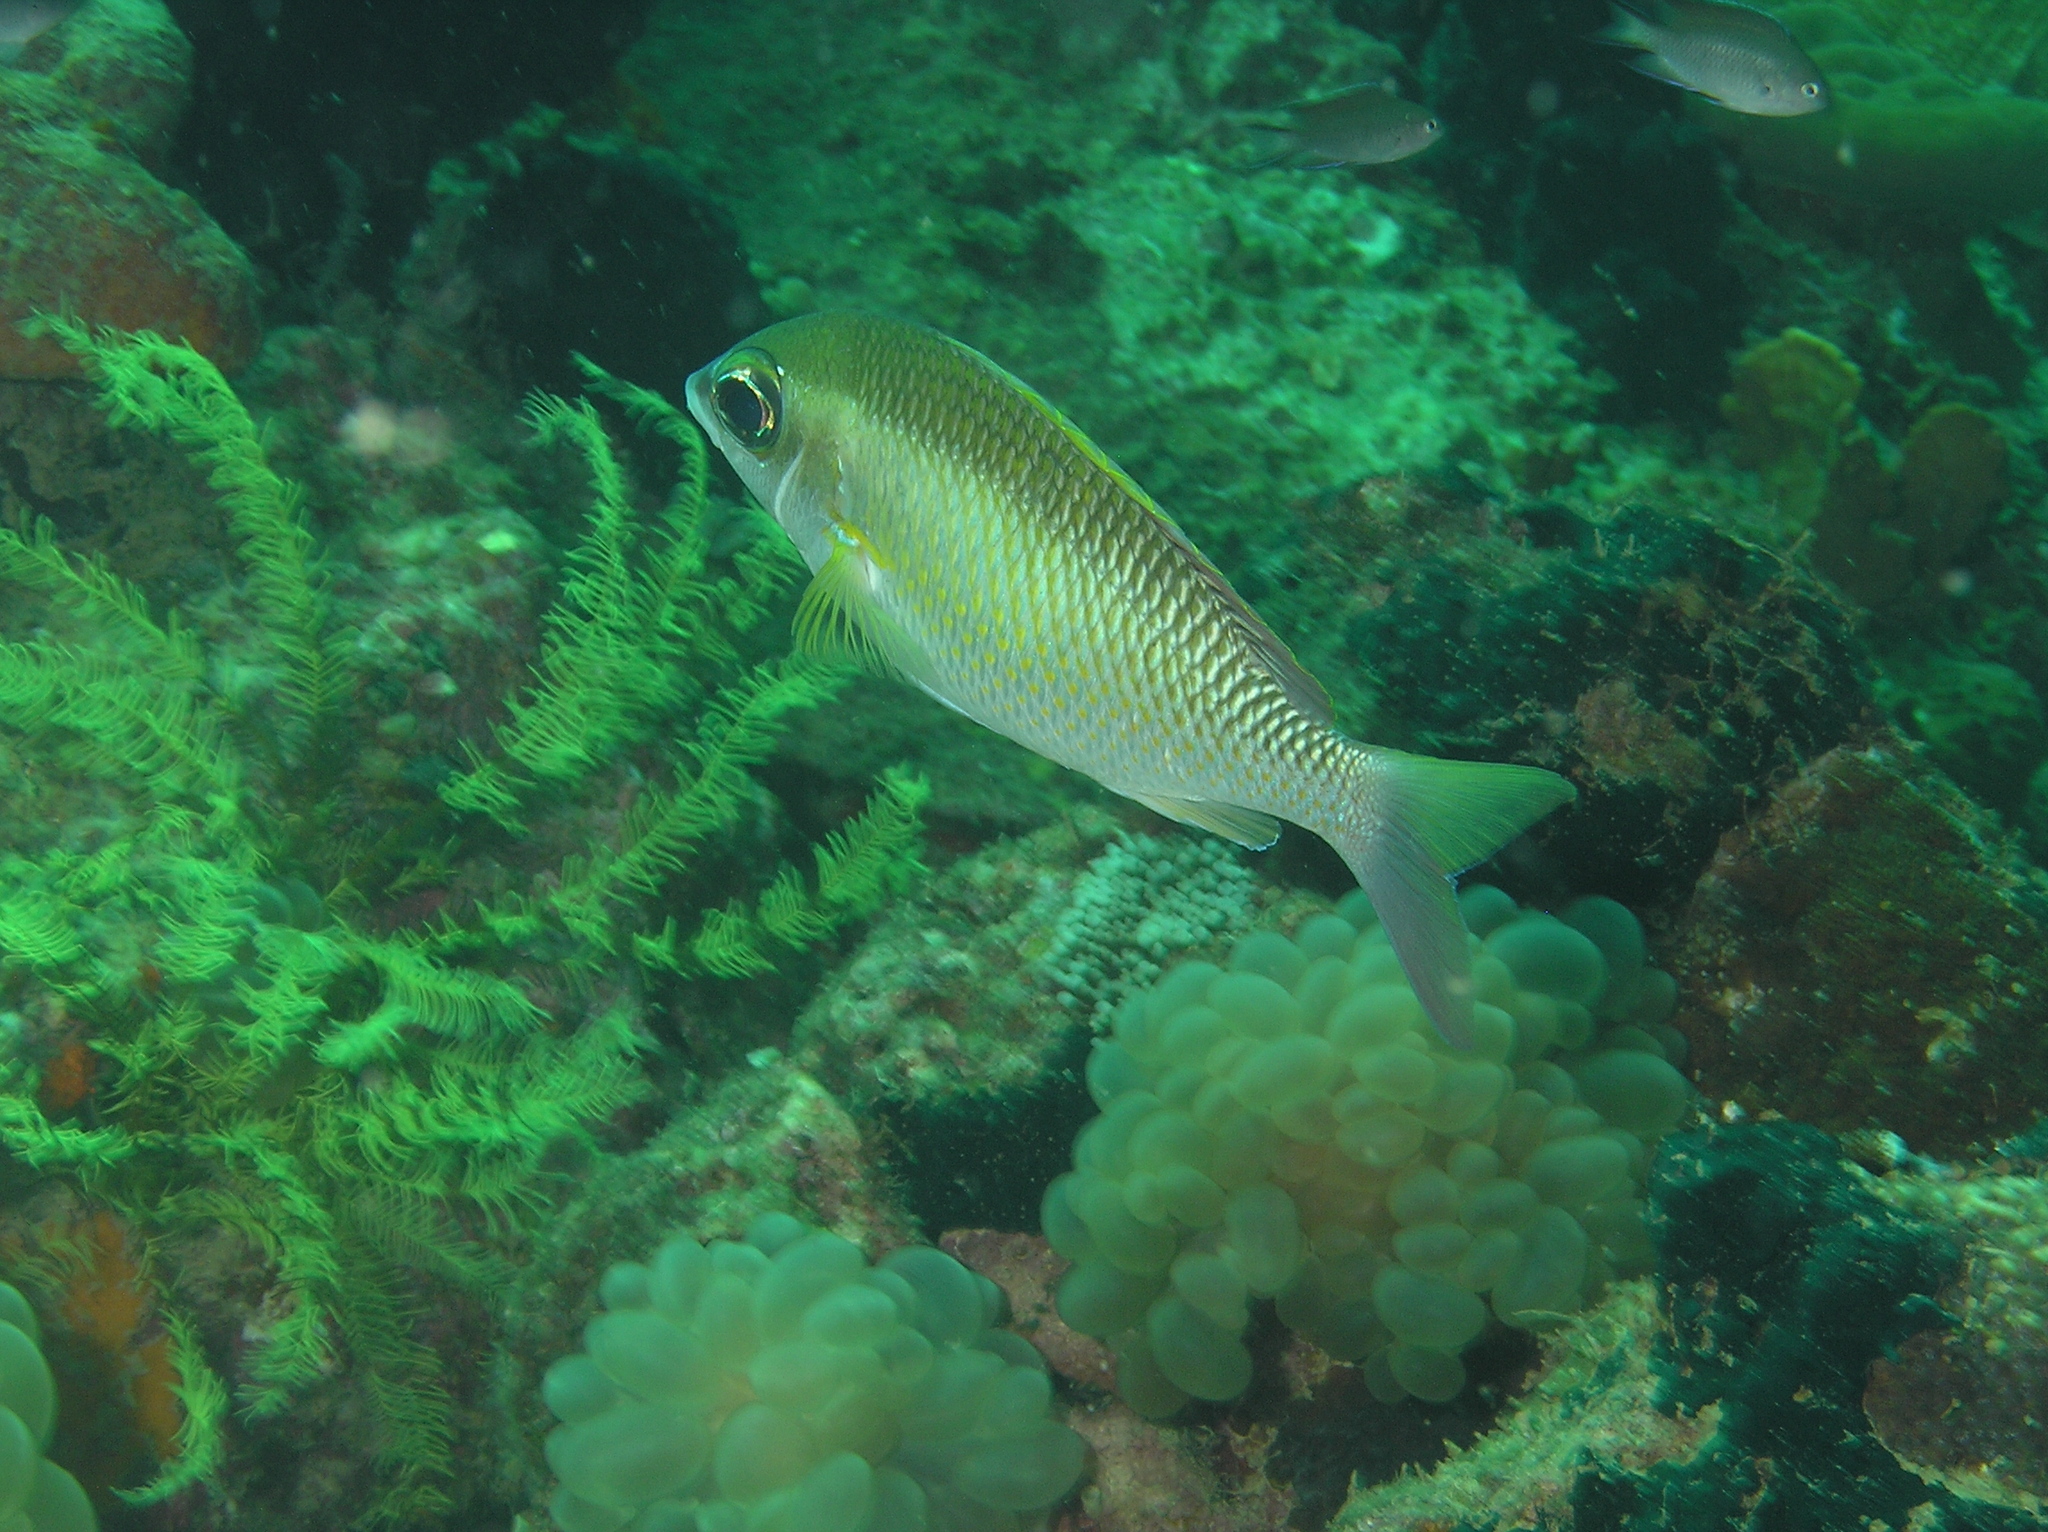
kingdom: Animalia
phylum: Chordata
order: Perciformes
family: Nemipteridae
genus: Scolopsis
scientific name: Scolopsis margaritifera
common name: Pearly monocle bream
